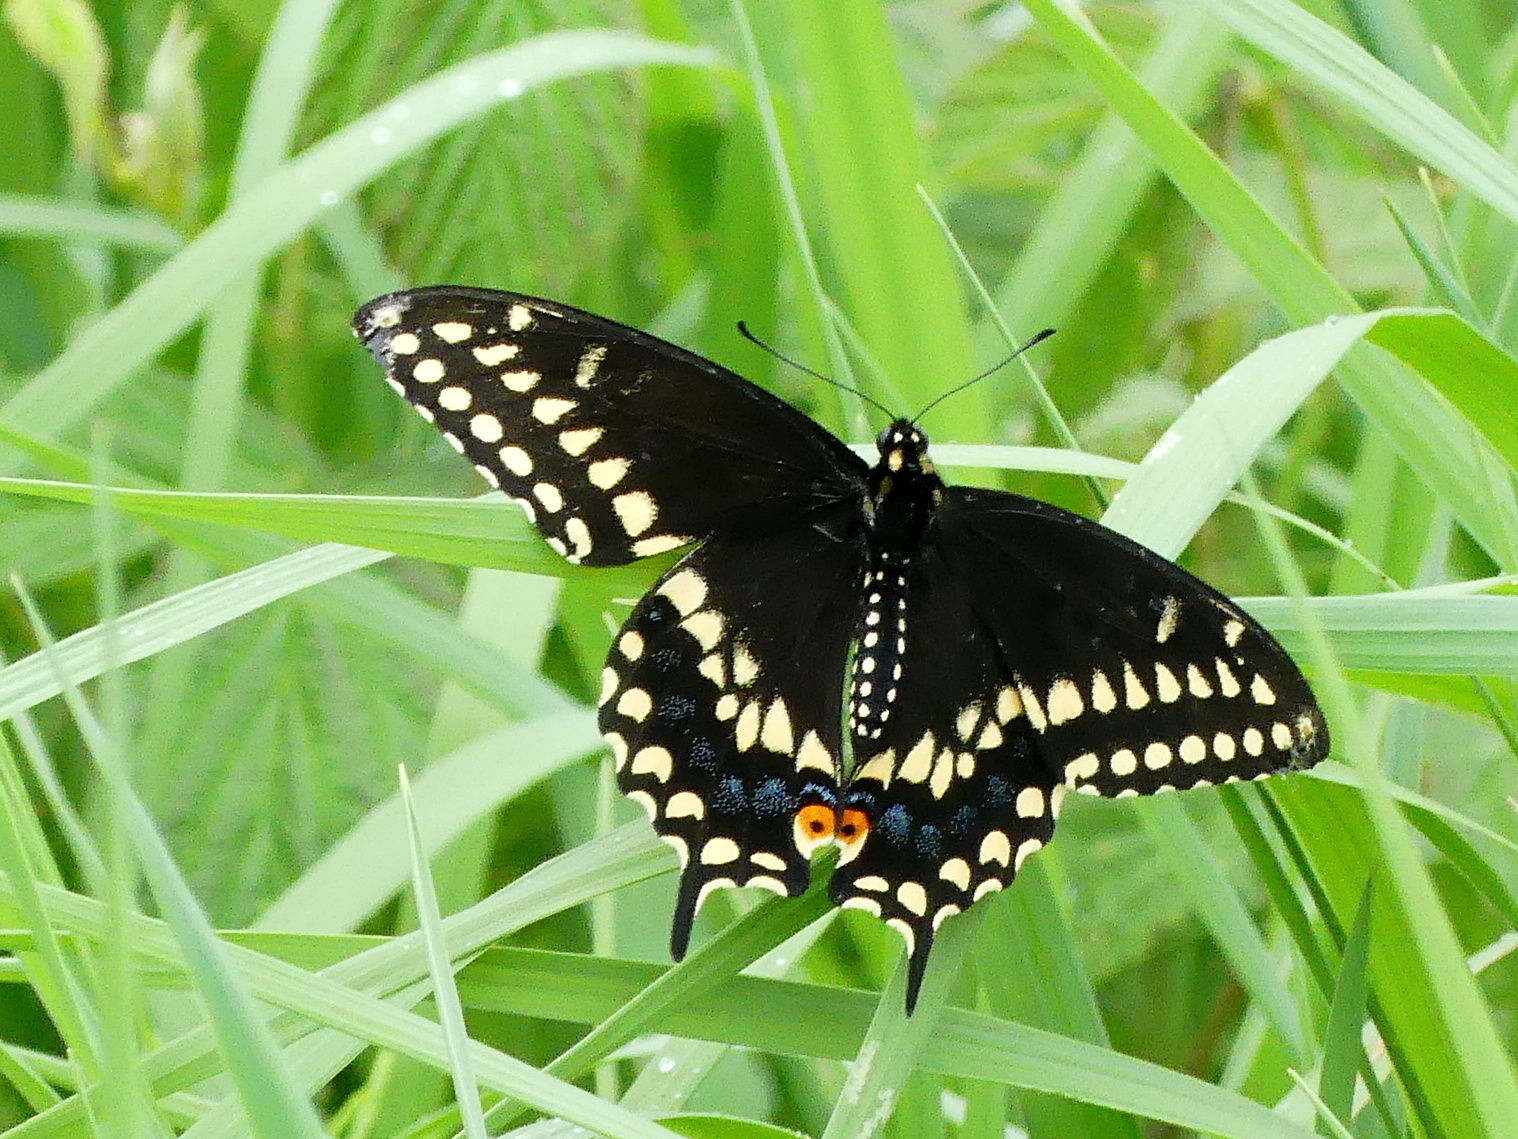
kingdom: Animalia
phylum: Arthropoda
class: Insecta
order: Lepidoptera
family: Papilionidae
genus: Papilio
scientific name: Papilio polyxenes
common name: Black swallowtail
